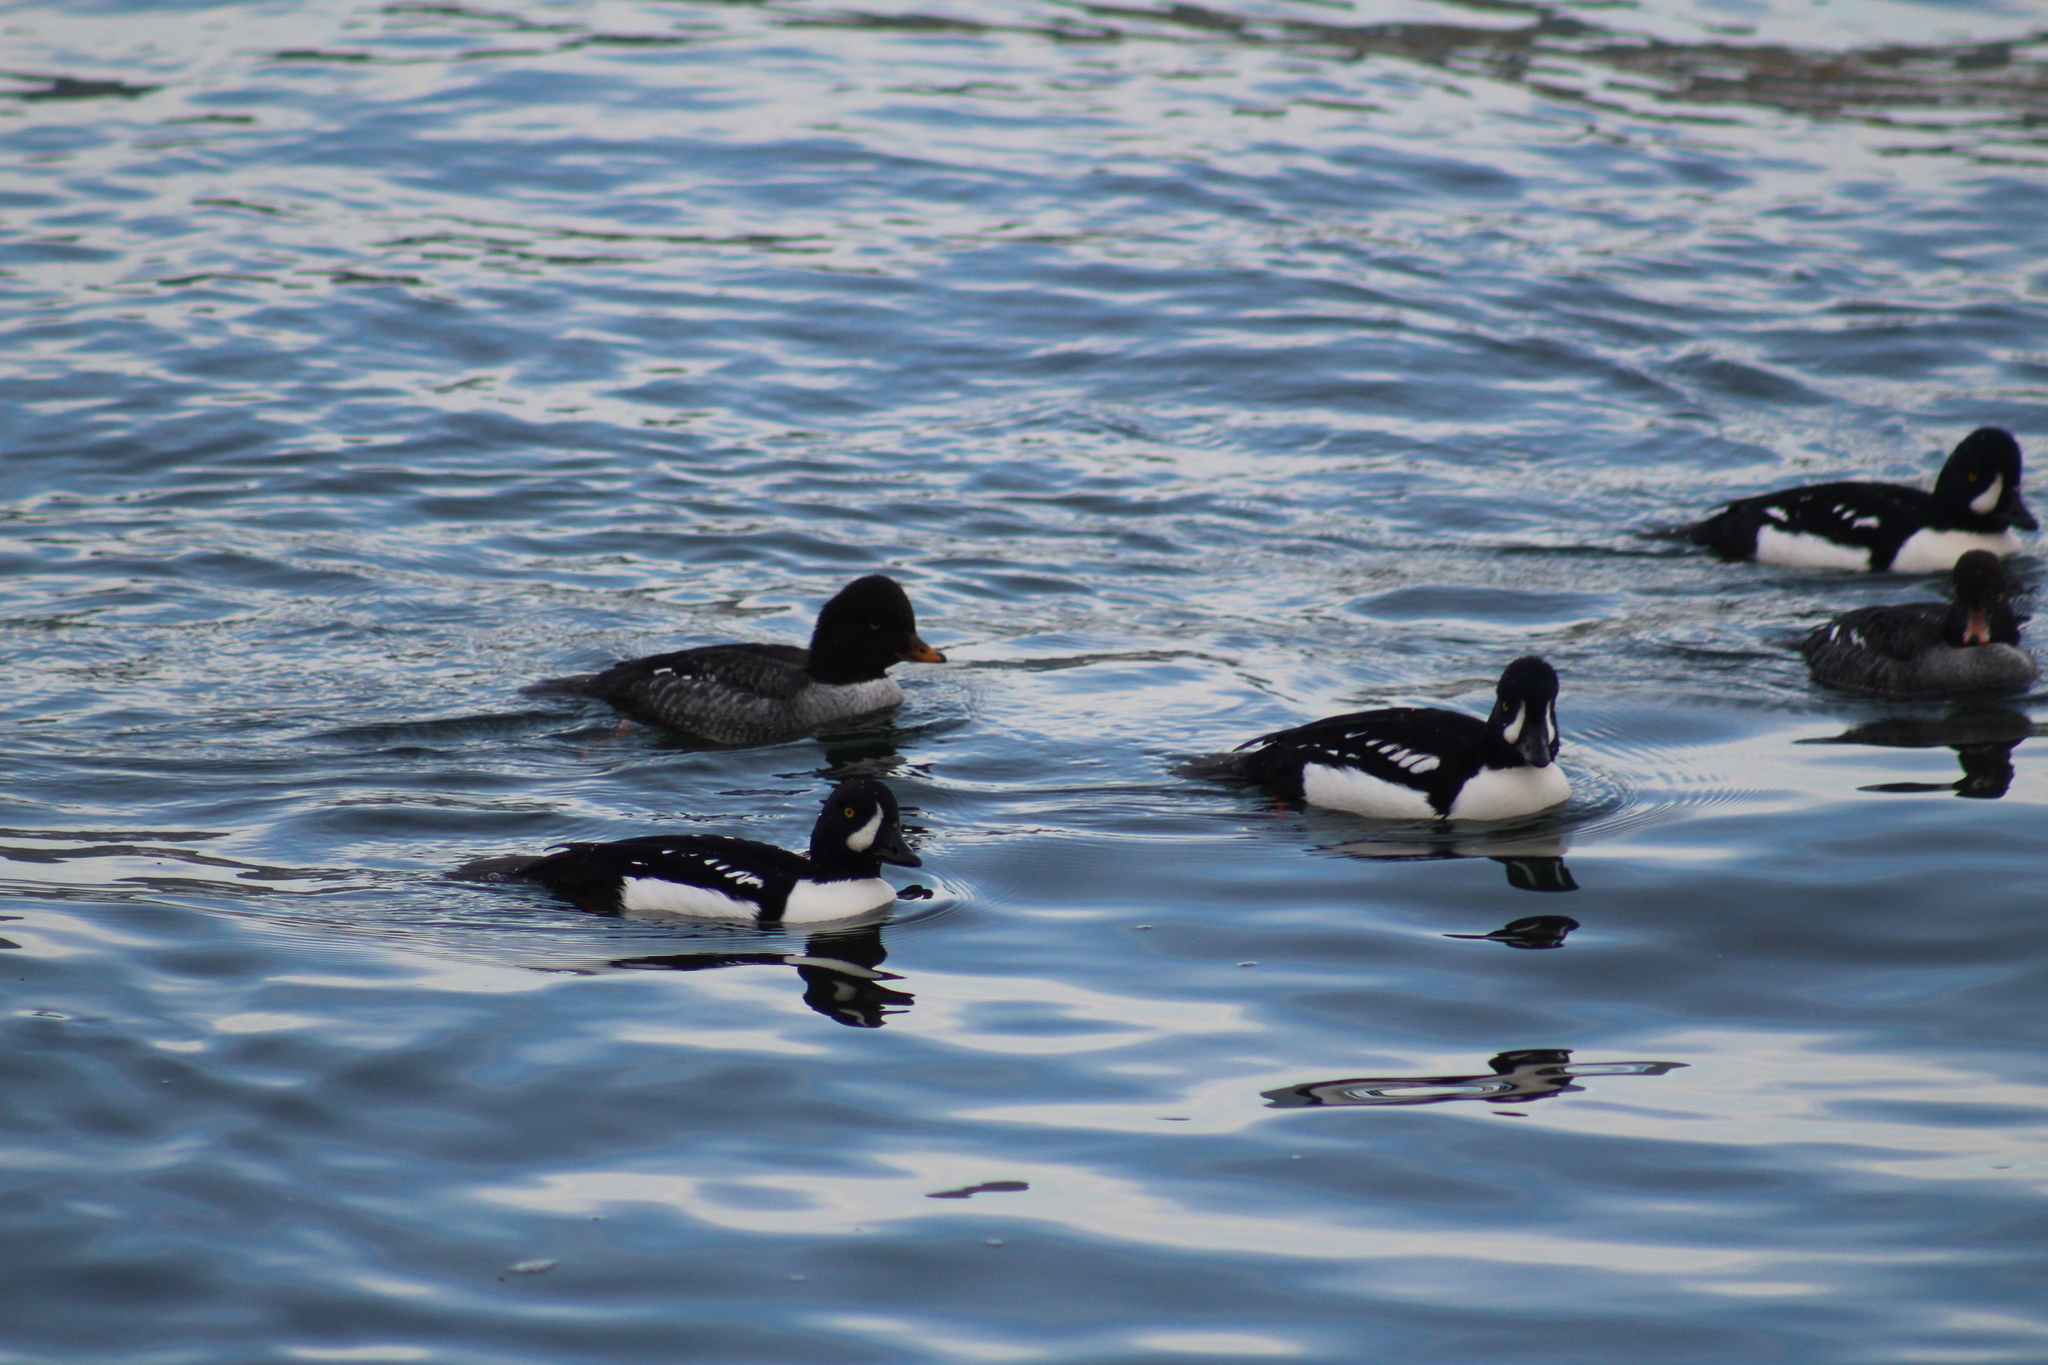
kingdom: Animalia
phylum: Chordata
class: Aves
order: Anseriformes
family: Anatidae
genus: Bucephala
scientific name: Bucephala islandica
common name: Barrow's goldeneye
